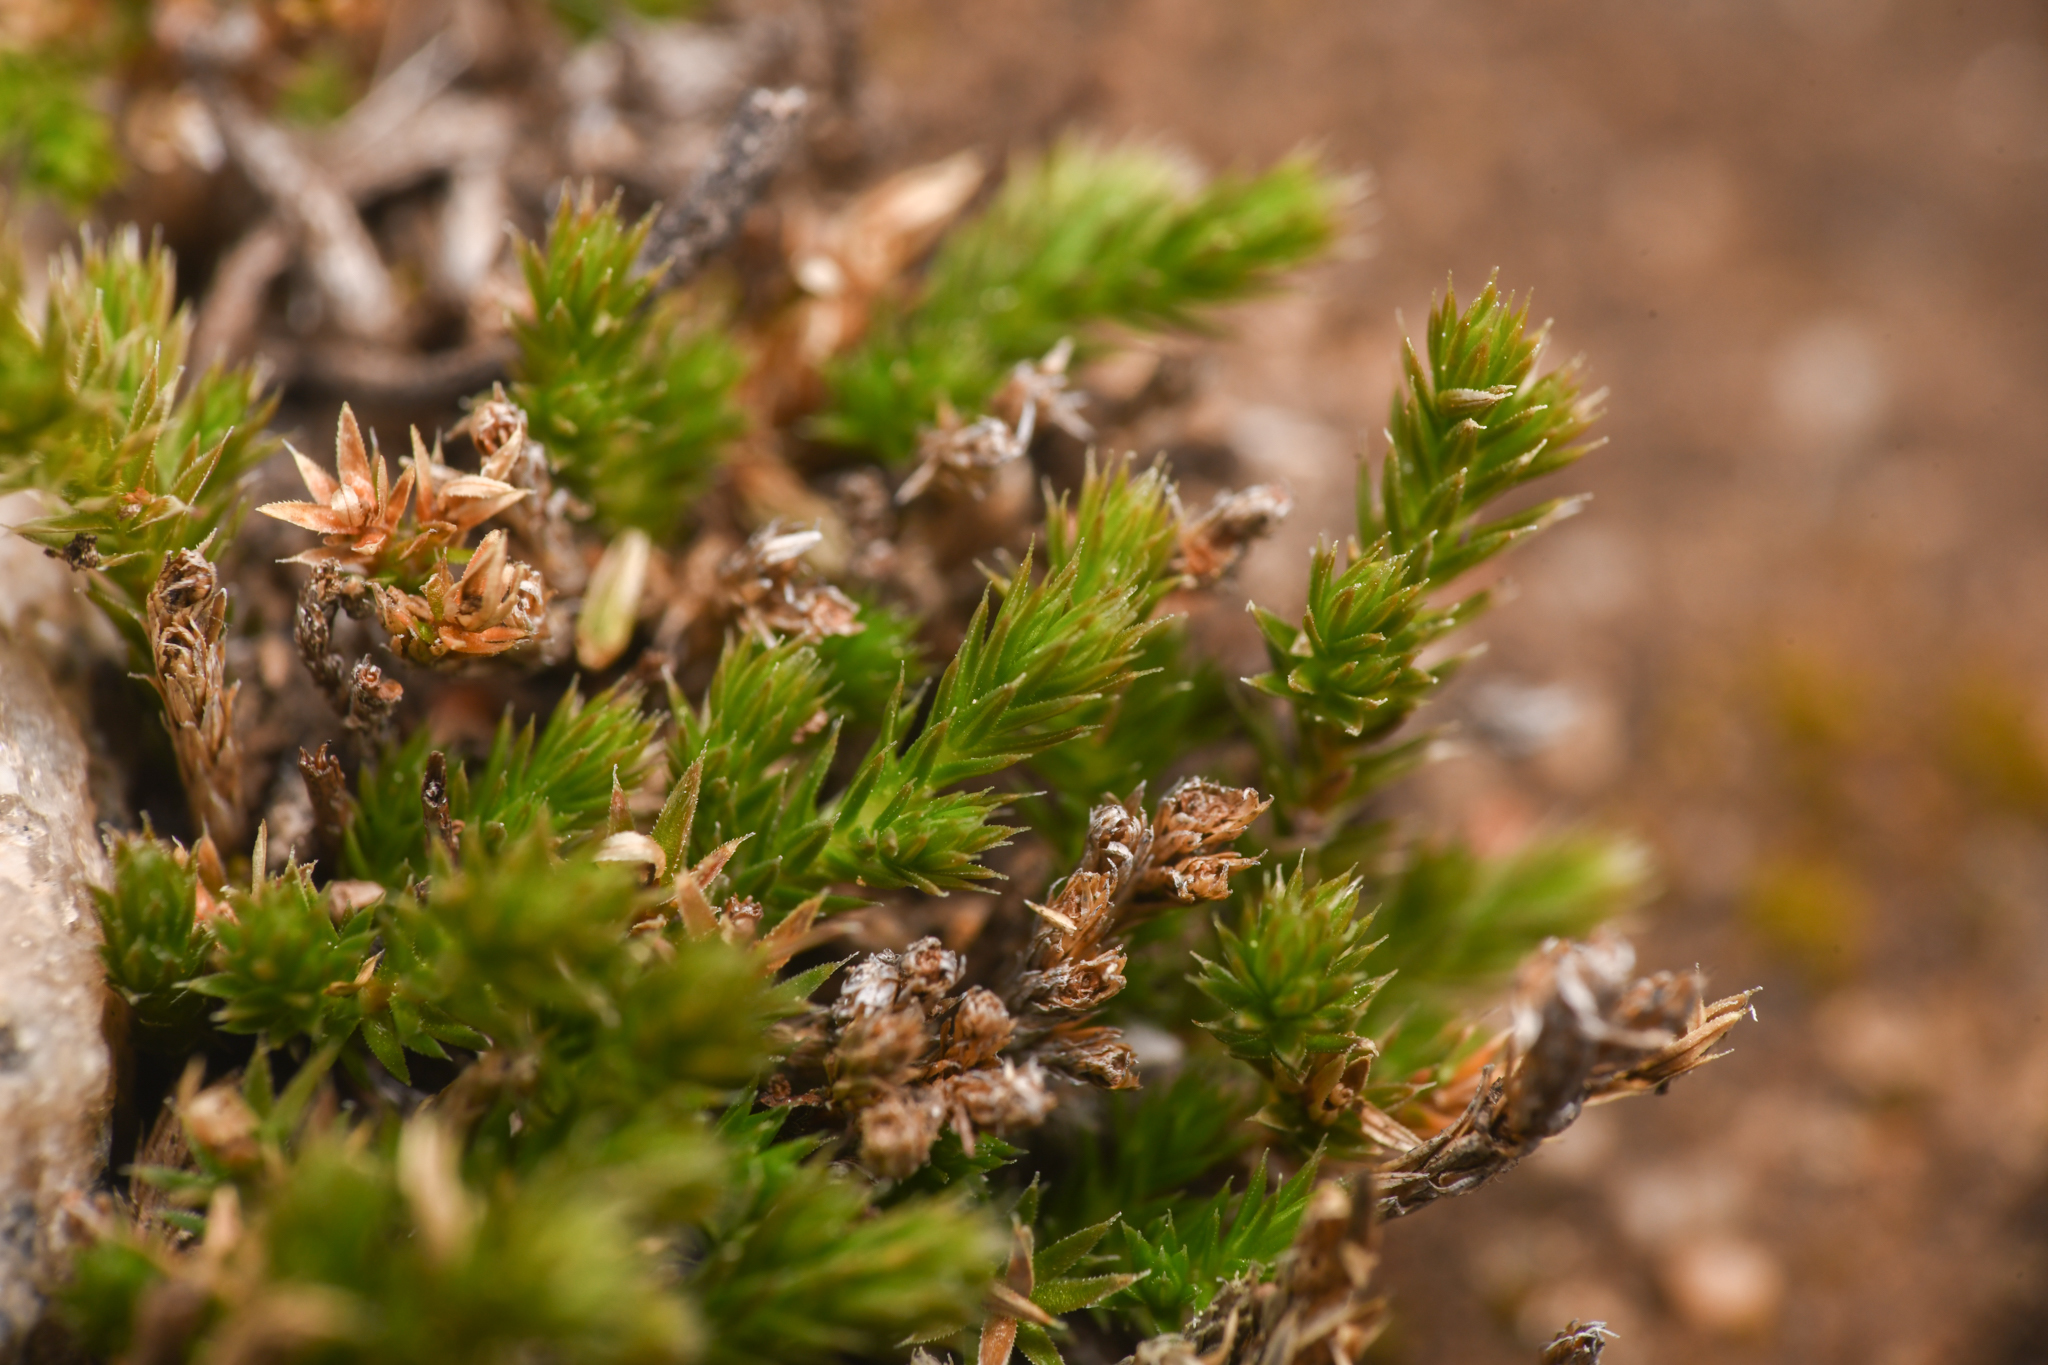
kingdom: Plantae
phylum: Tracheophyta
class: Lycopodiopsida
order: Selaginellales
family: Selaginellaceae
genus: Selaginella
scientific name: Selaginella bigelovii
